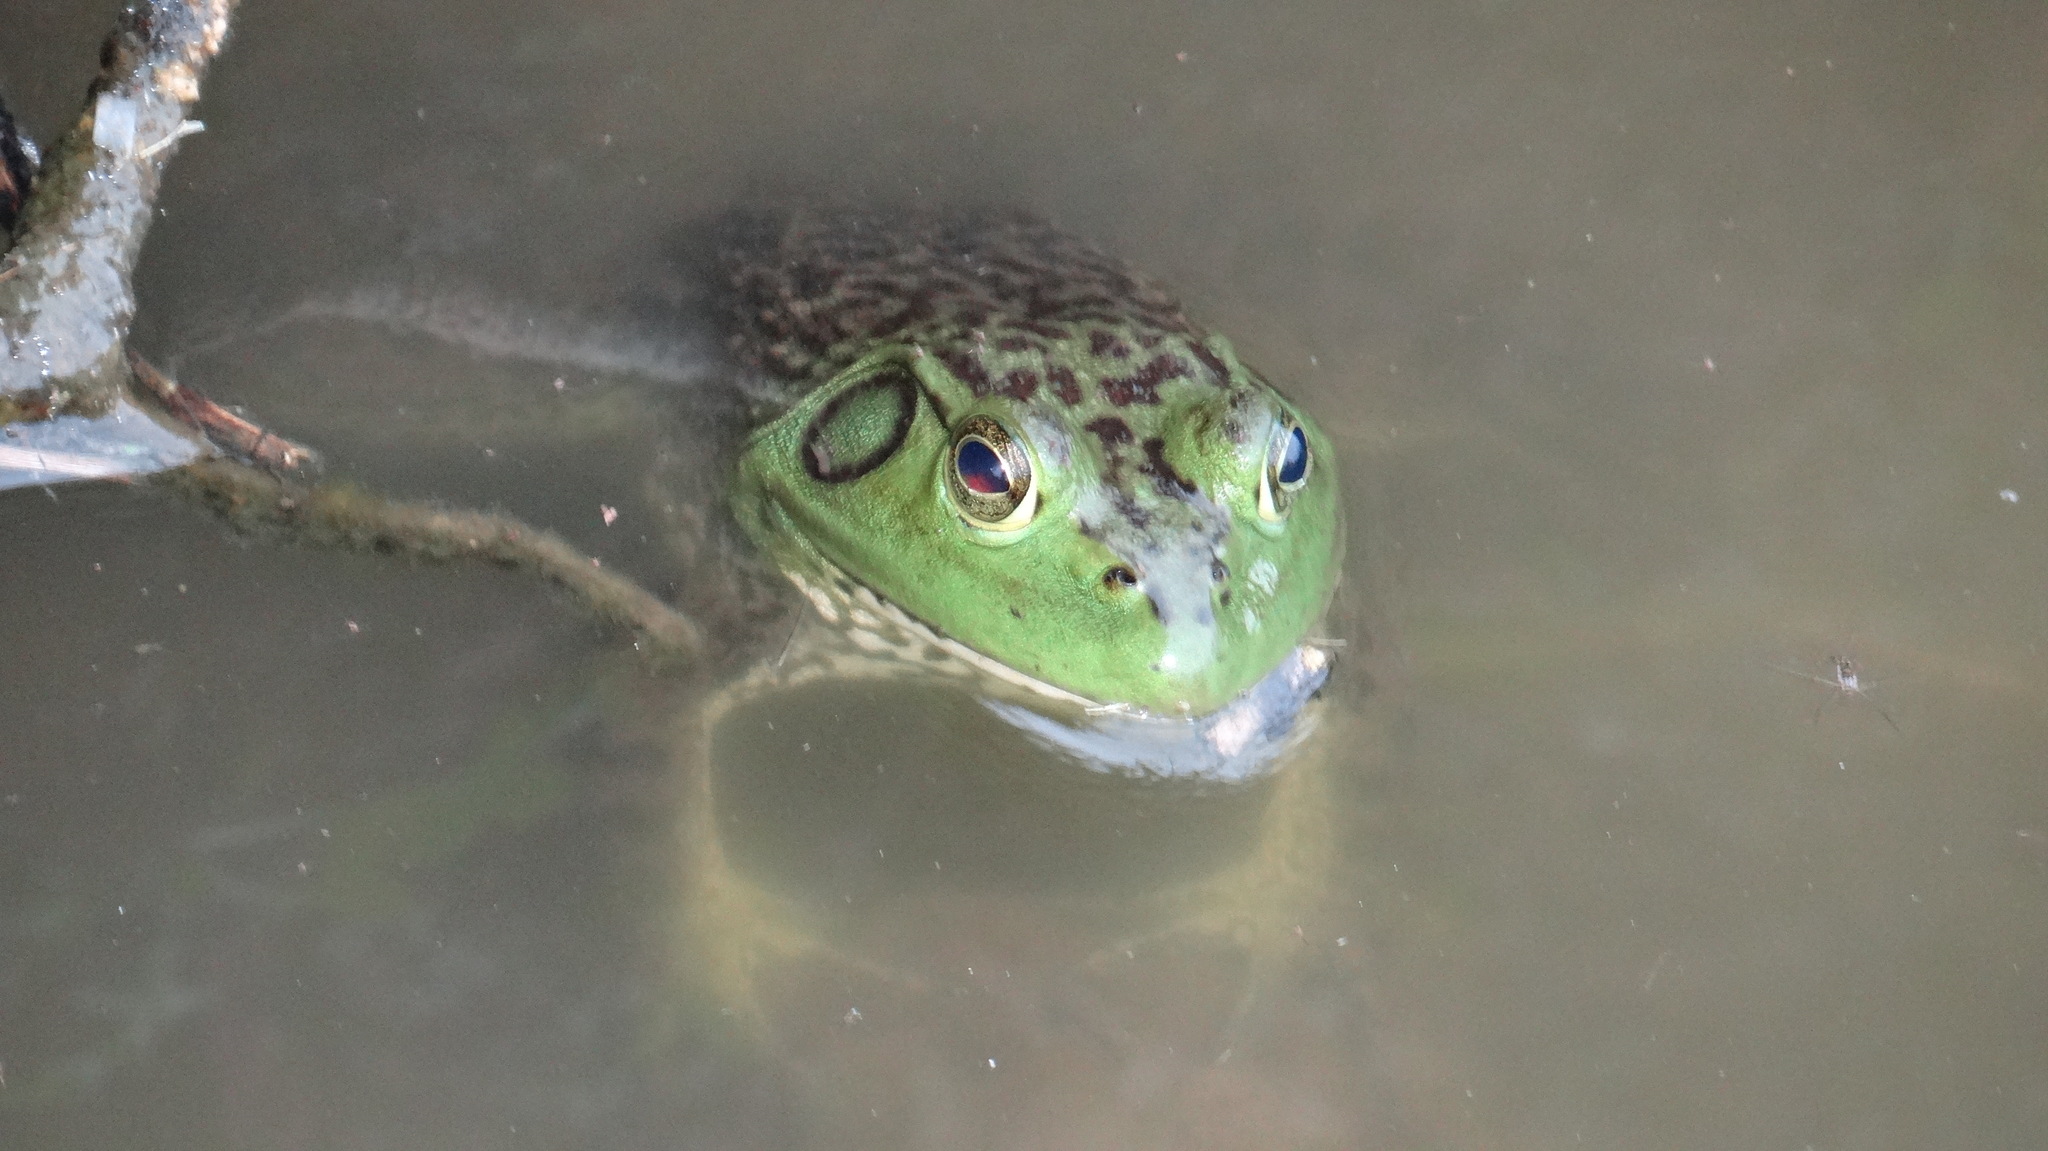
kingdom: Animalia
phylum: Chordata
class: Amphibia
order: Anura
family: Ranidae
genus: Lithobates
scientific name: Lithobates catesbeianus
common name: American bullfrog
